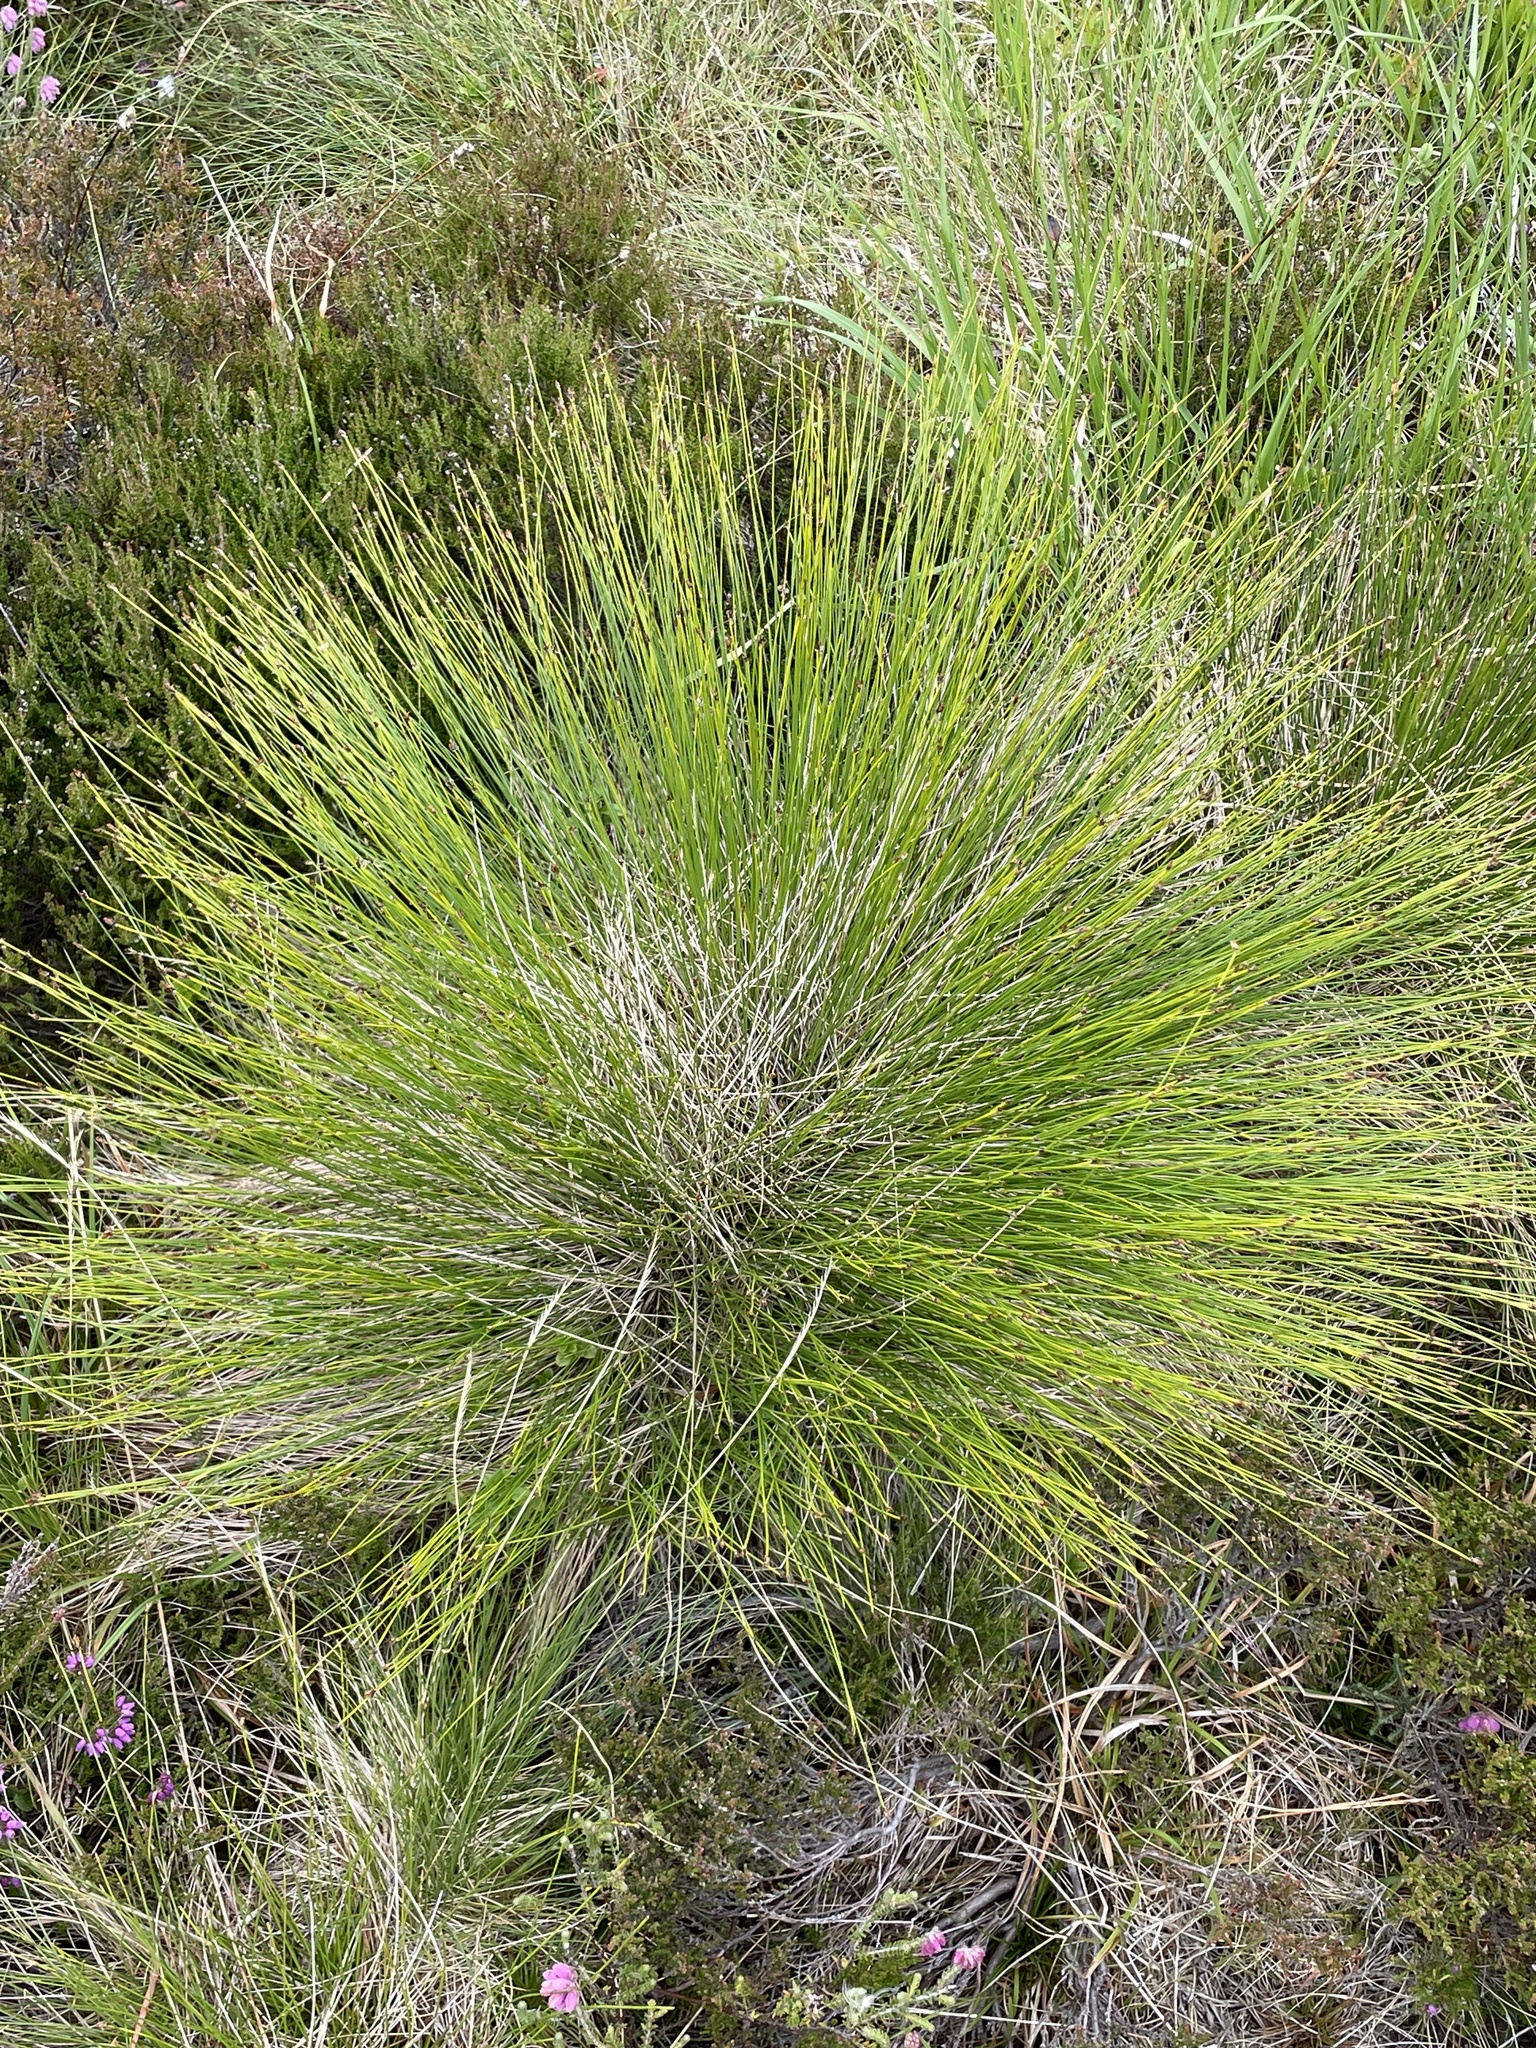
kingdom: Plantae
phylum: Tracheophyta
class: Liliopsida
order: Poales
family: Cyperaceae
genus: Trichophorum
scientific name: Trichophorum cespitosum
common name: Cespitose bulrush
